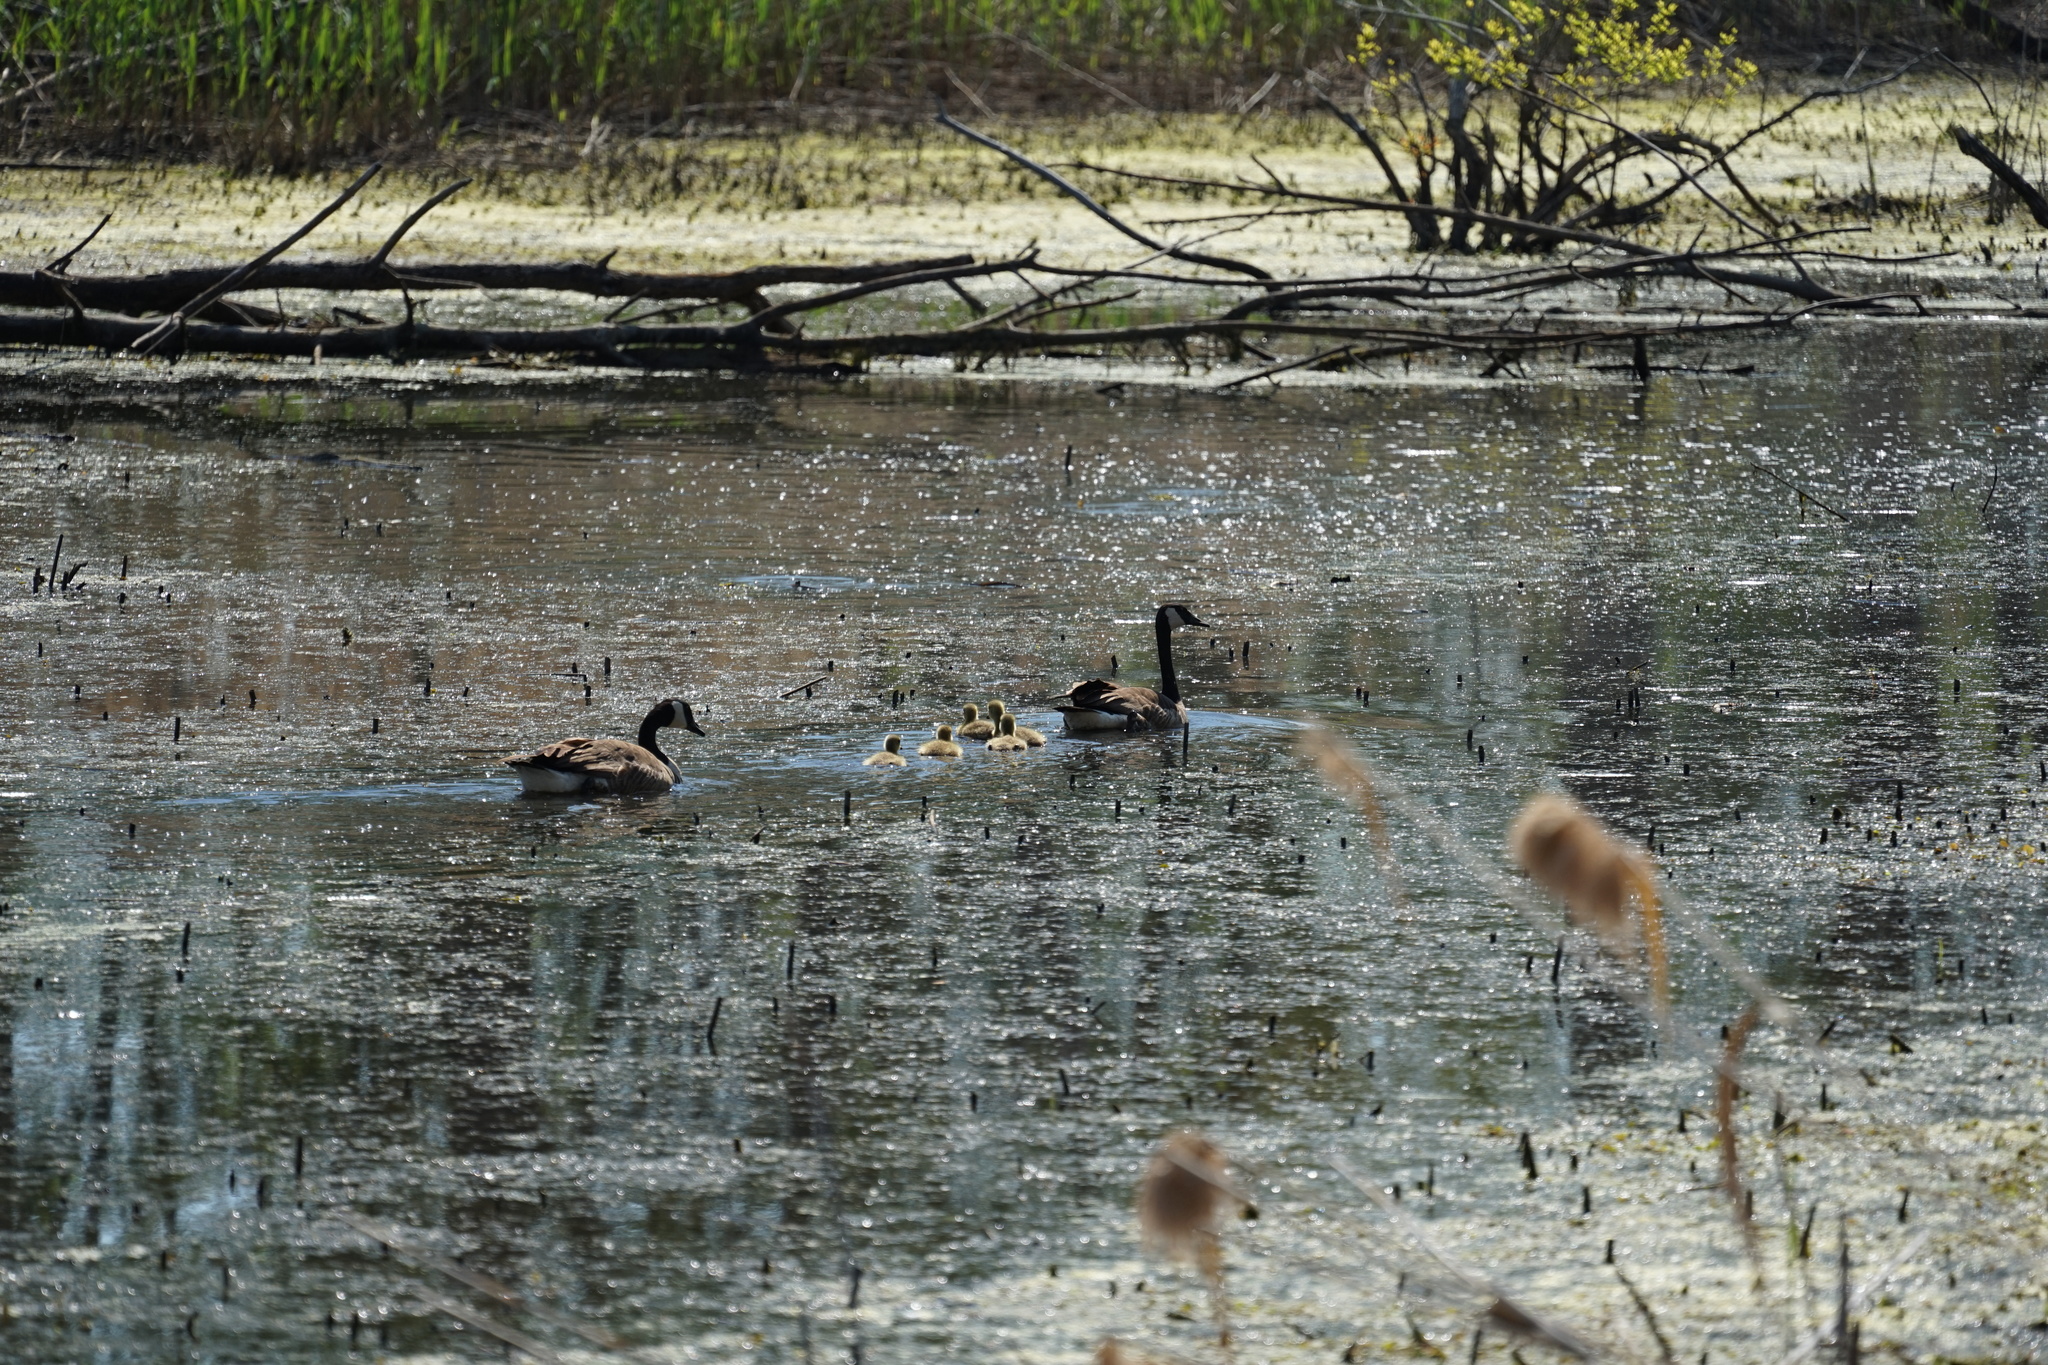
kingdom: Animalia
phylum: Chordata
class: Aves
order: Anseriformes
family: Anatidae
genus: Branta
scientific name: Branta canadensis
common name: Canada goose
